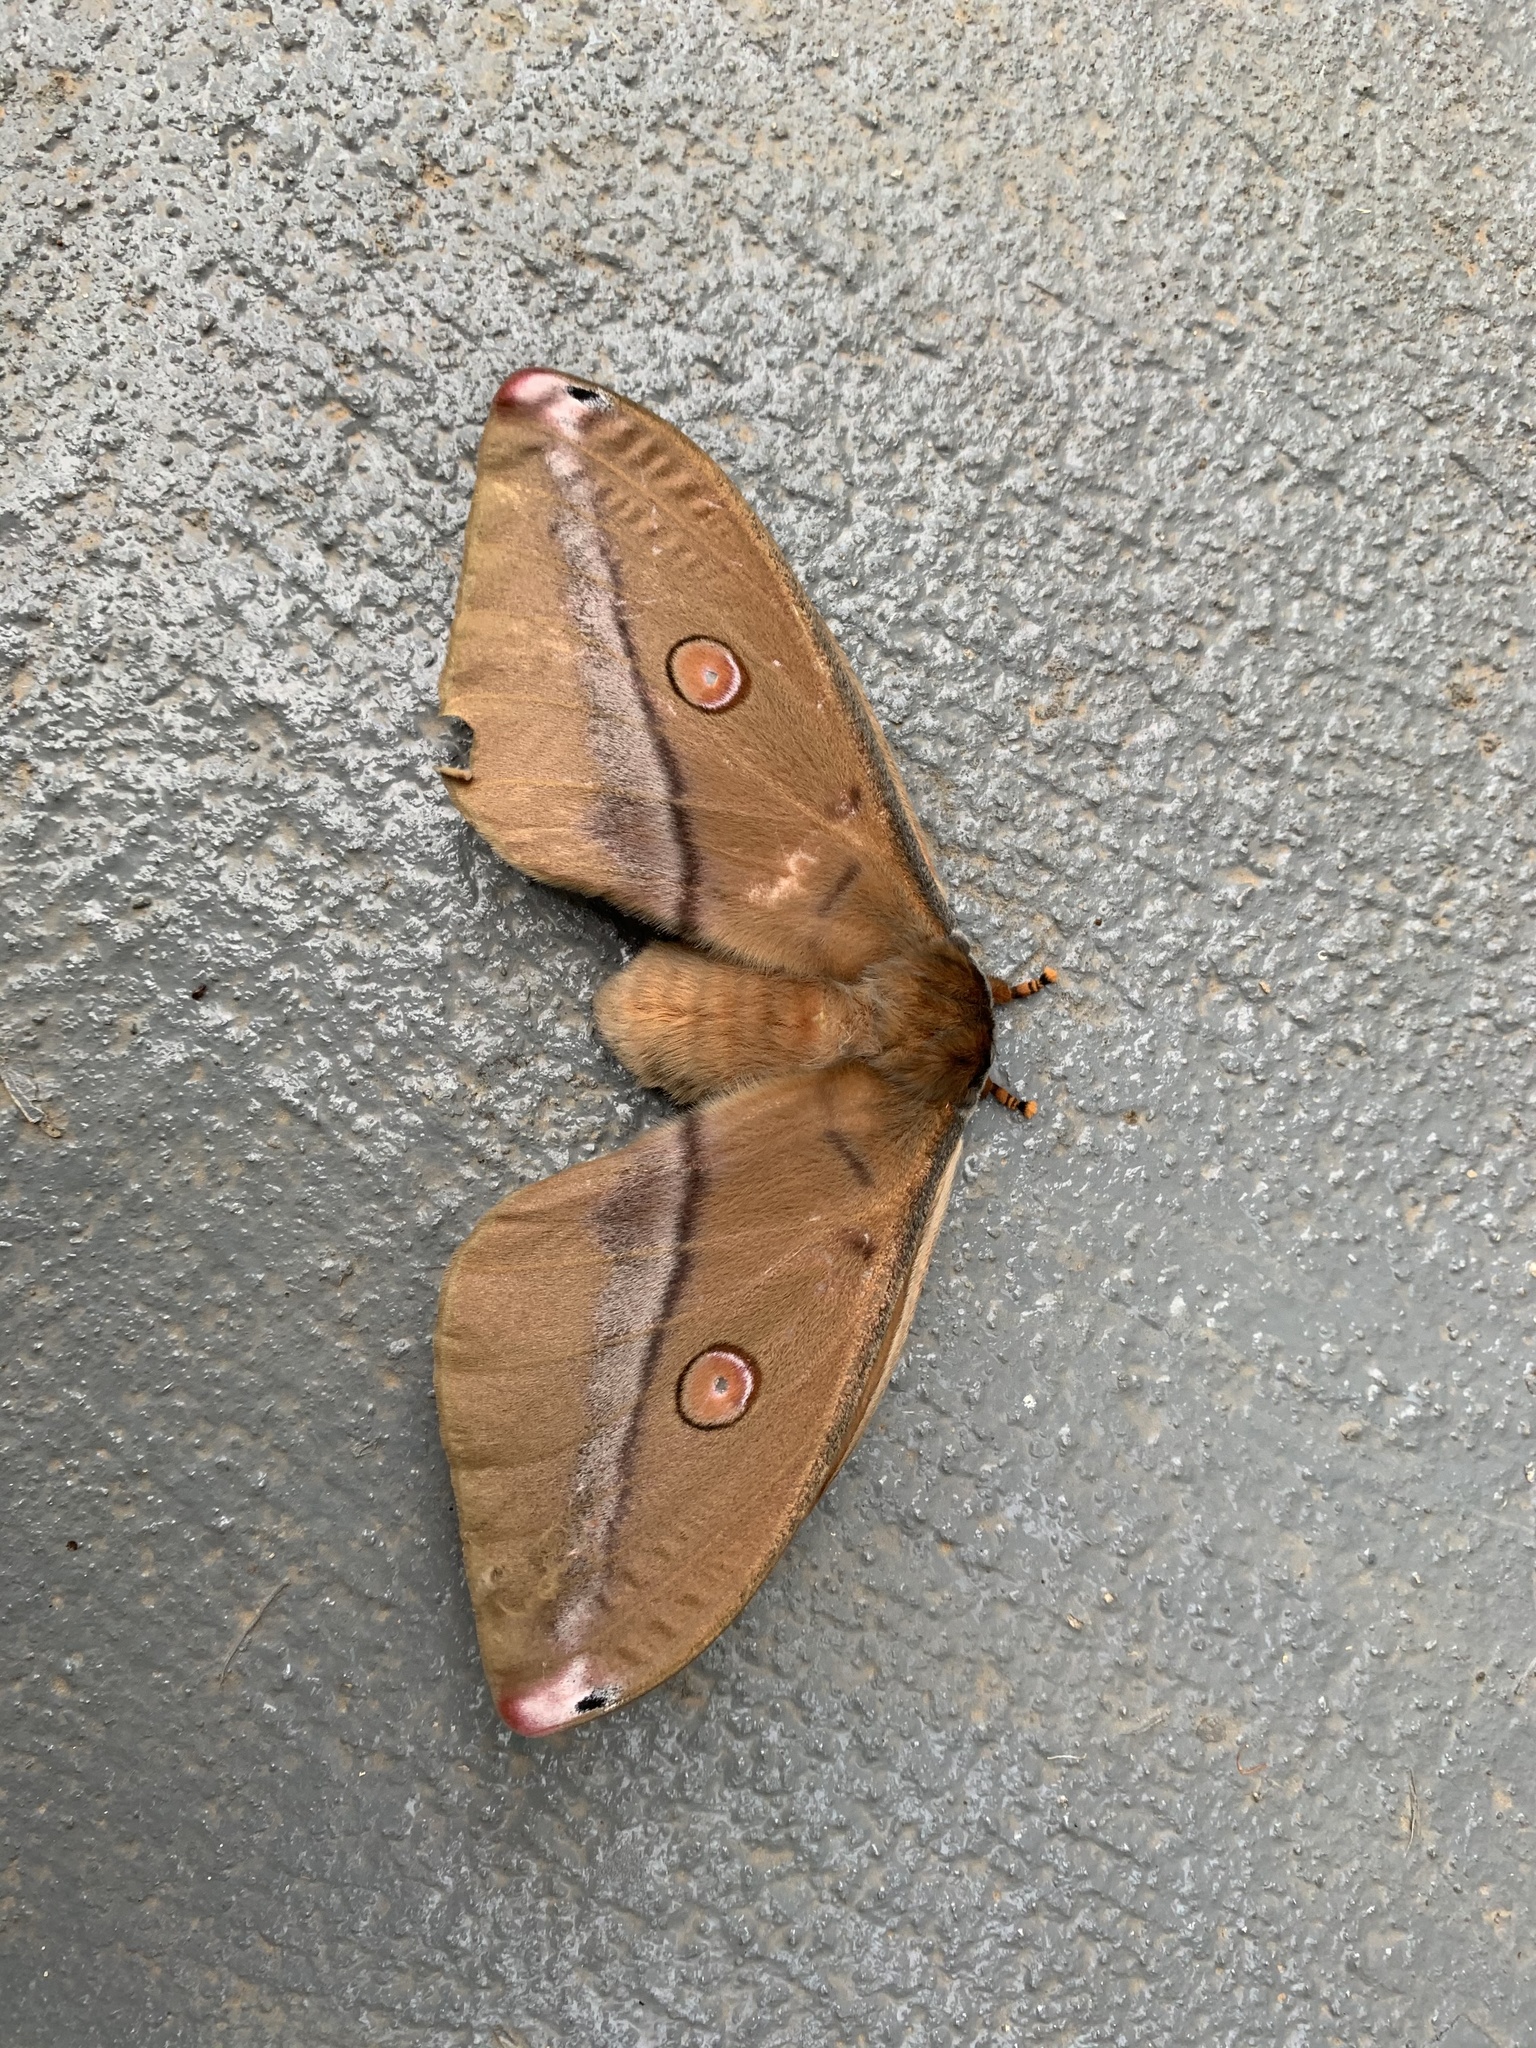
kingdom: Animalia
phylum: Arthropoda
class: Insecta
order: Lepidoptera
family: Saturniidae
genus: Opodiphthera
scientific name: Opodiphthera
